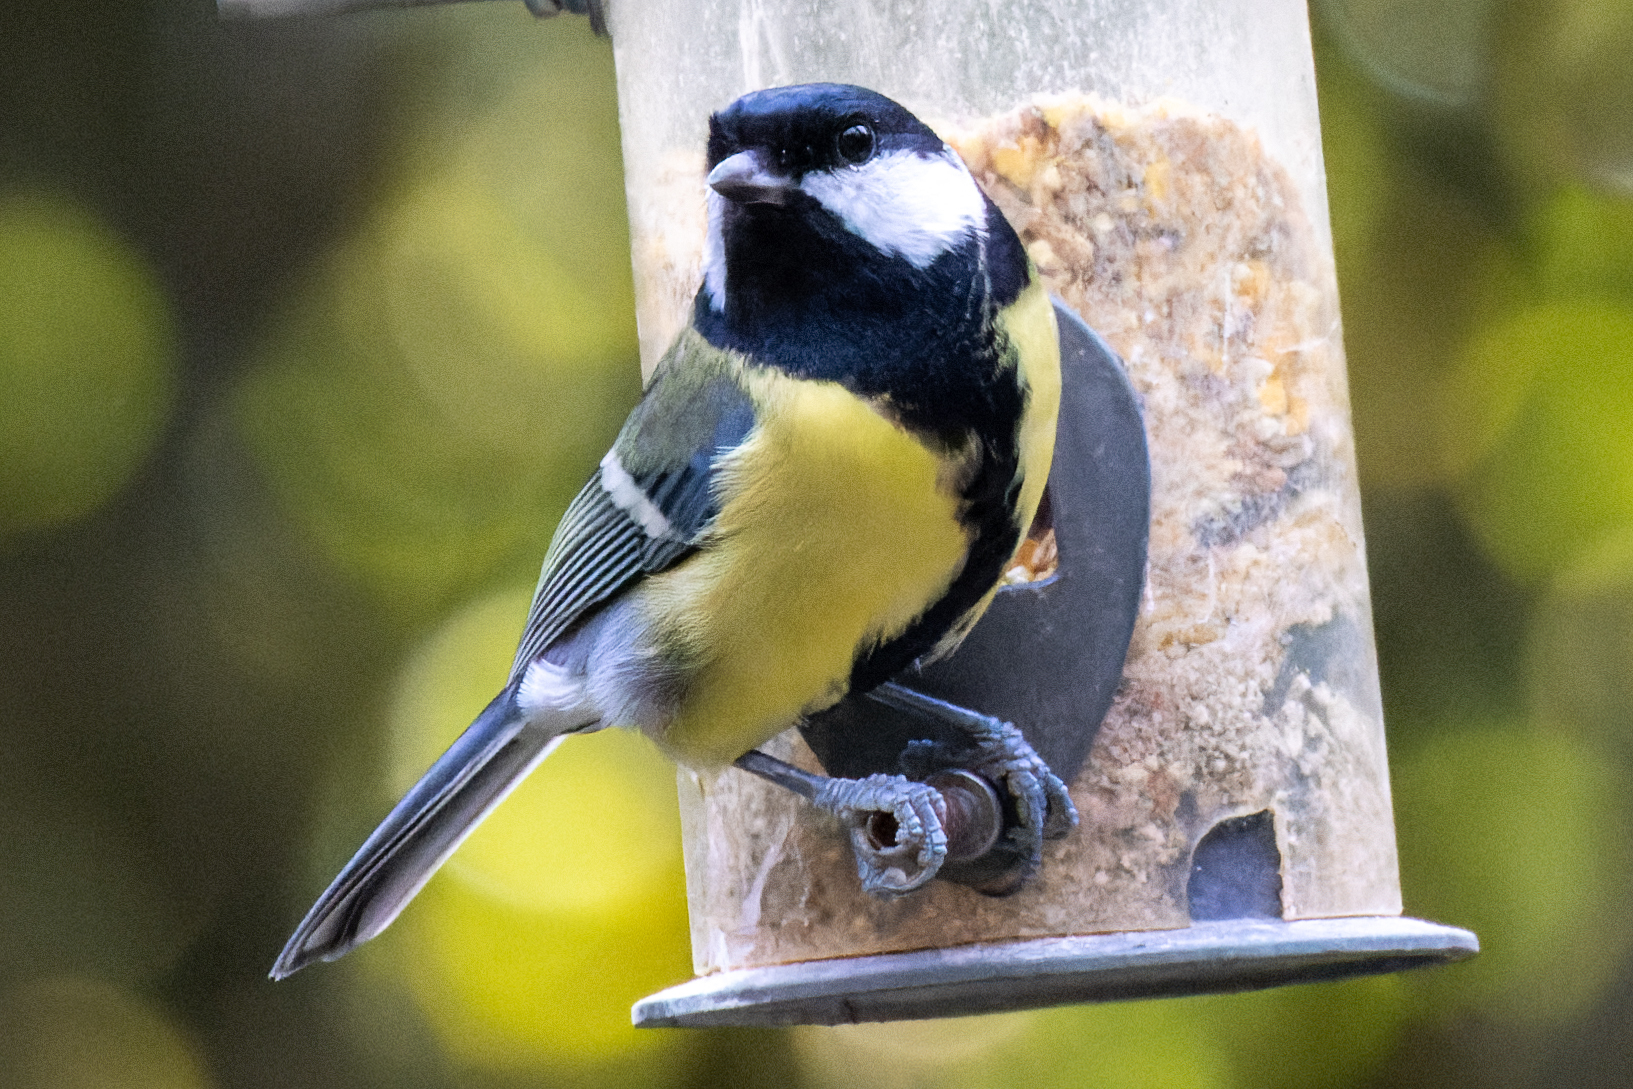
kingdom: Animalia
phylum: Chordata
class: Aves
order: Passeriformes
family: Paridae
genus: Parus
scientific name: Parus major
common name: Great tit
